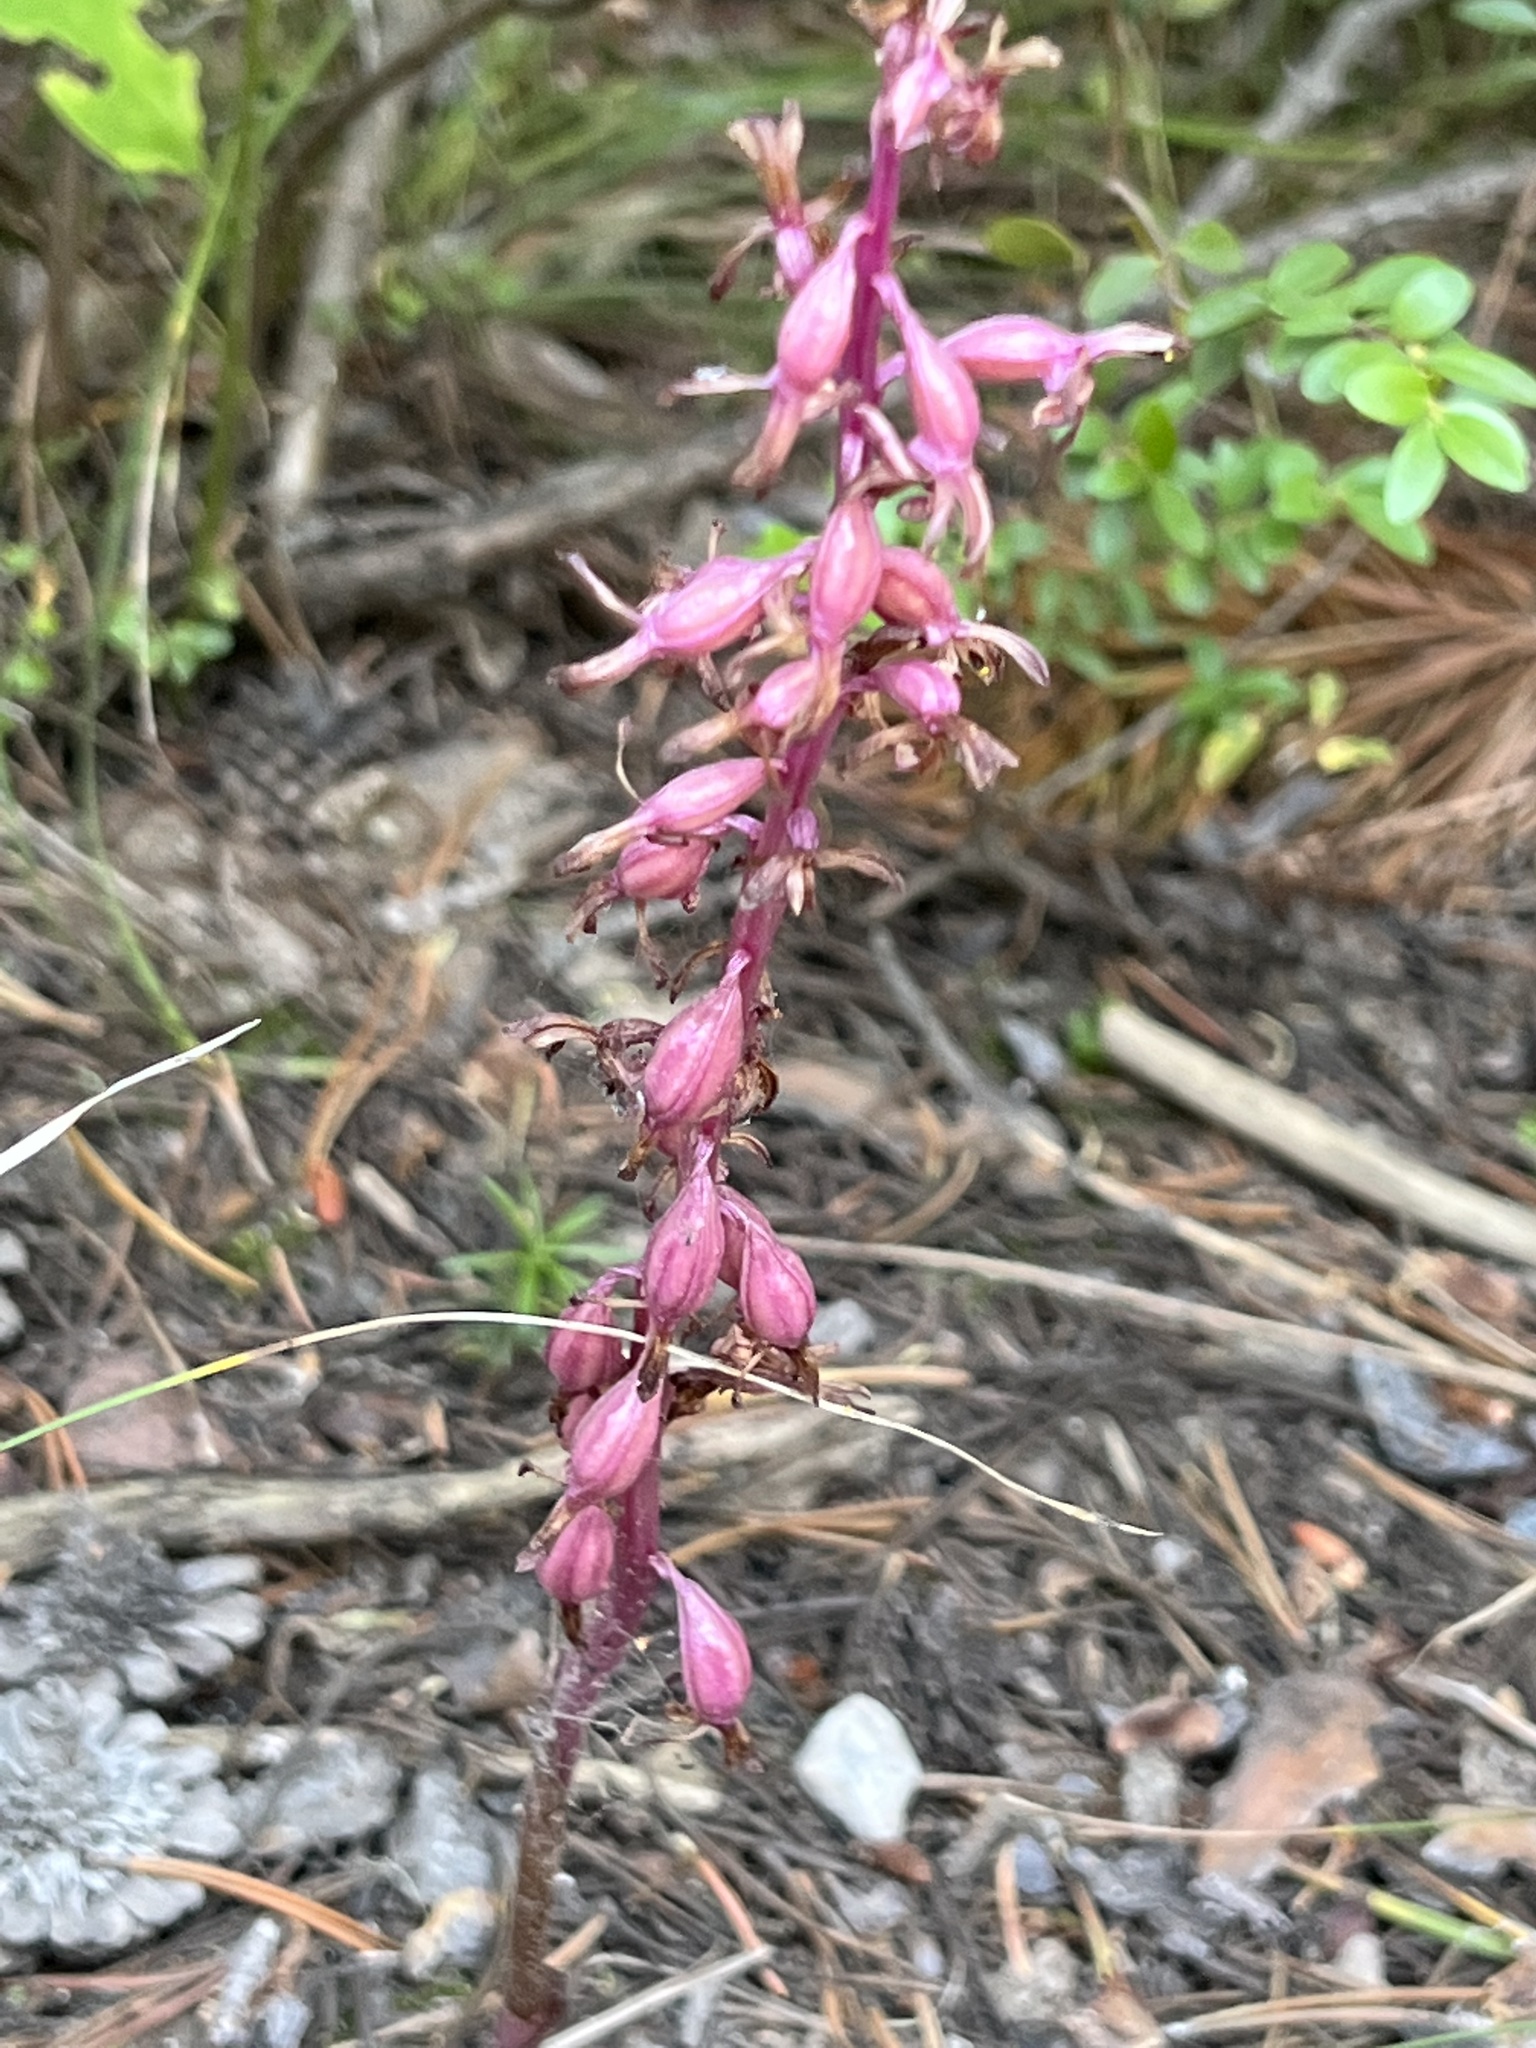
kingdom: Plantae
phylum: Tracheophyta
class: Liliopsida
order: Asparagales
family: Orchidaceae
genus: Corallorhiza
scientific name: Corallorhiza mertensiana
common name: Pacific coralroot
